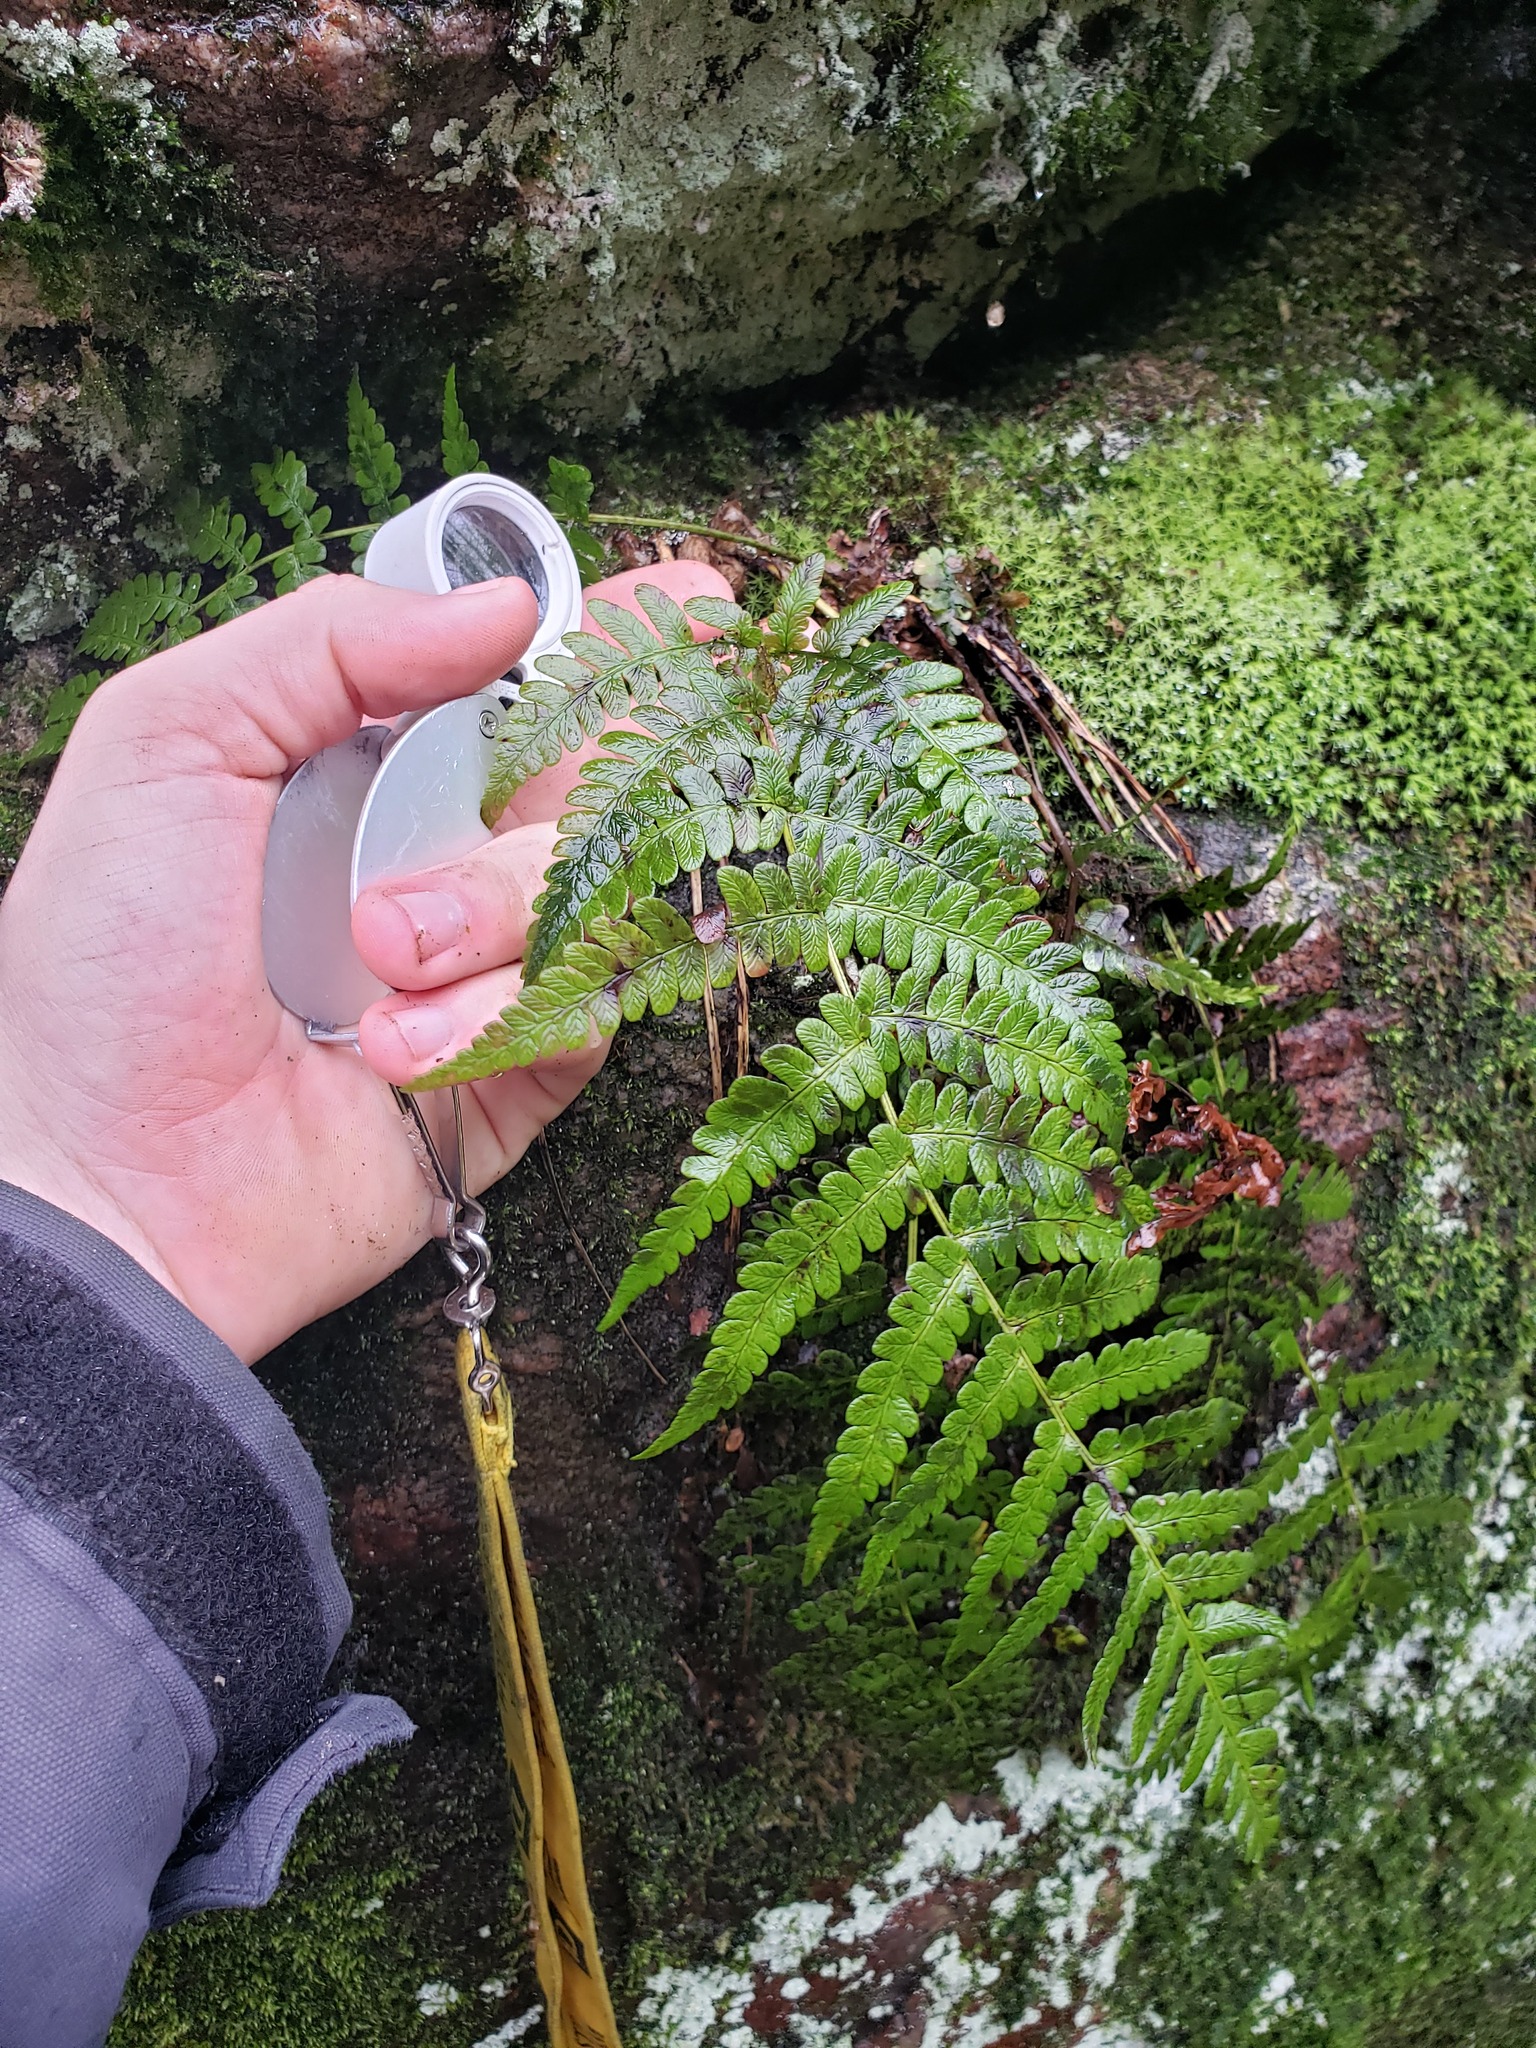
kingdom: Plantae
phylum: Tracheophyta
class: Polypodiopsida
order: Polypodiales
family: Dryopteridaceae
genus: Dryopteris
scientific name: Dryopteris marginalis
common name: Marginal wood fern
